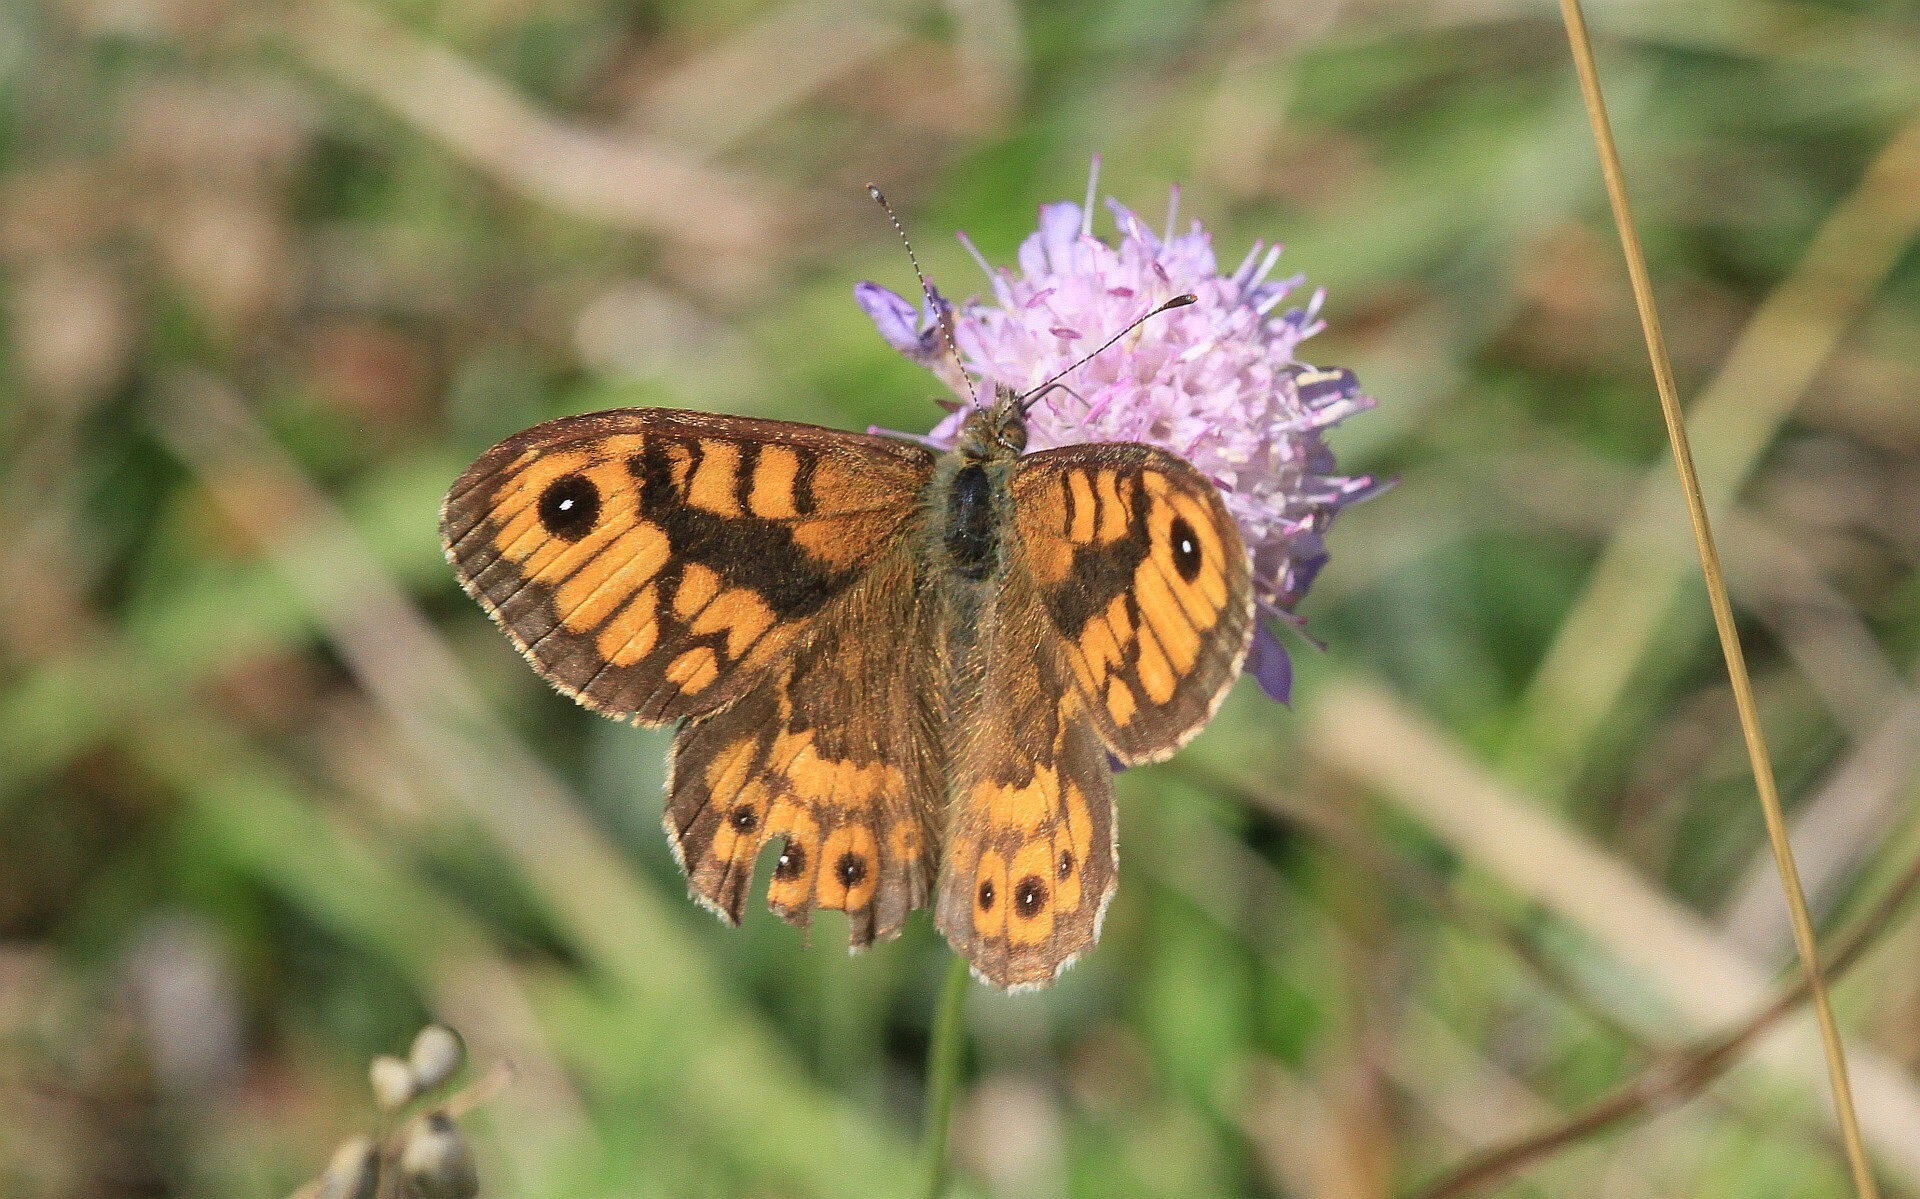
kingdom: Animalia
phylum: Arthropoda
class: Insecta
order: Lepidoptera
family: Nymphalidae
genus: Pararge
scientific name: Pararge Lasiommata megera
